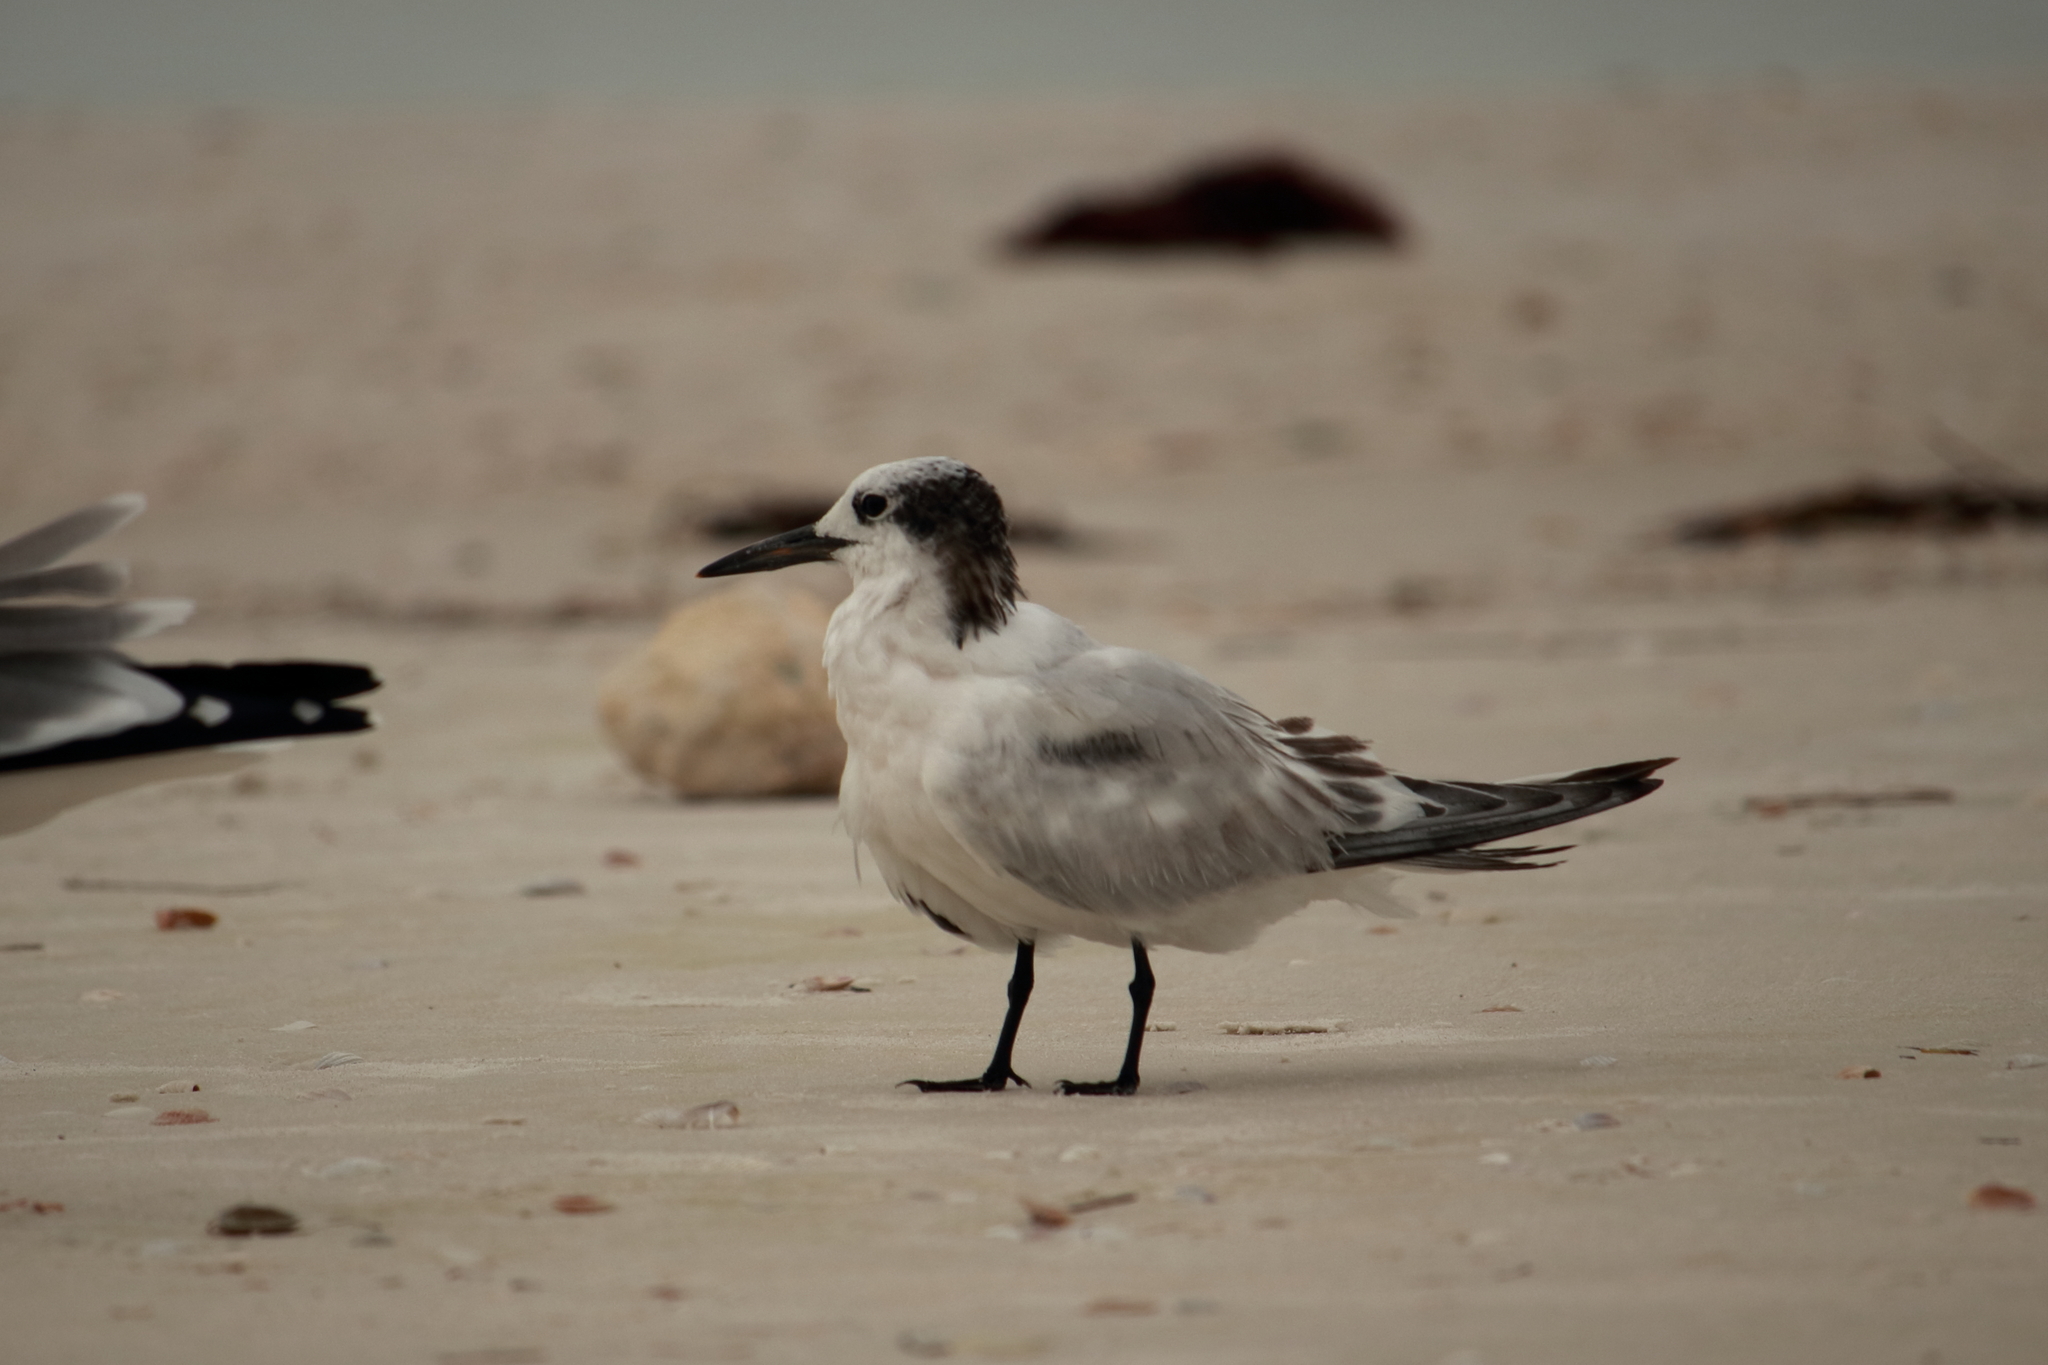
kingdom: Animalia
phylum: Chordata
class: Aves
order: Charadriiformes
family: Laridae
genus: Thalasseus
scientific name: Thalasseus acuflavidus
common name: Cabot's tern
